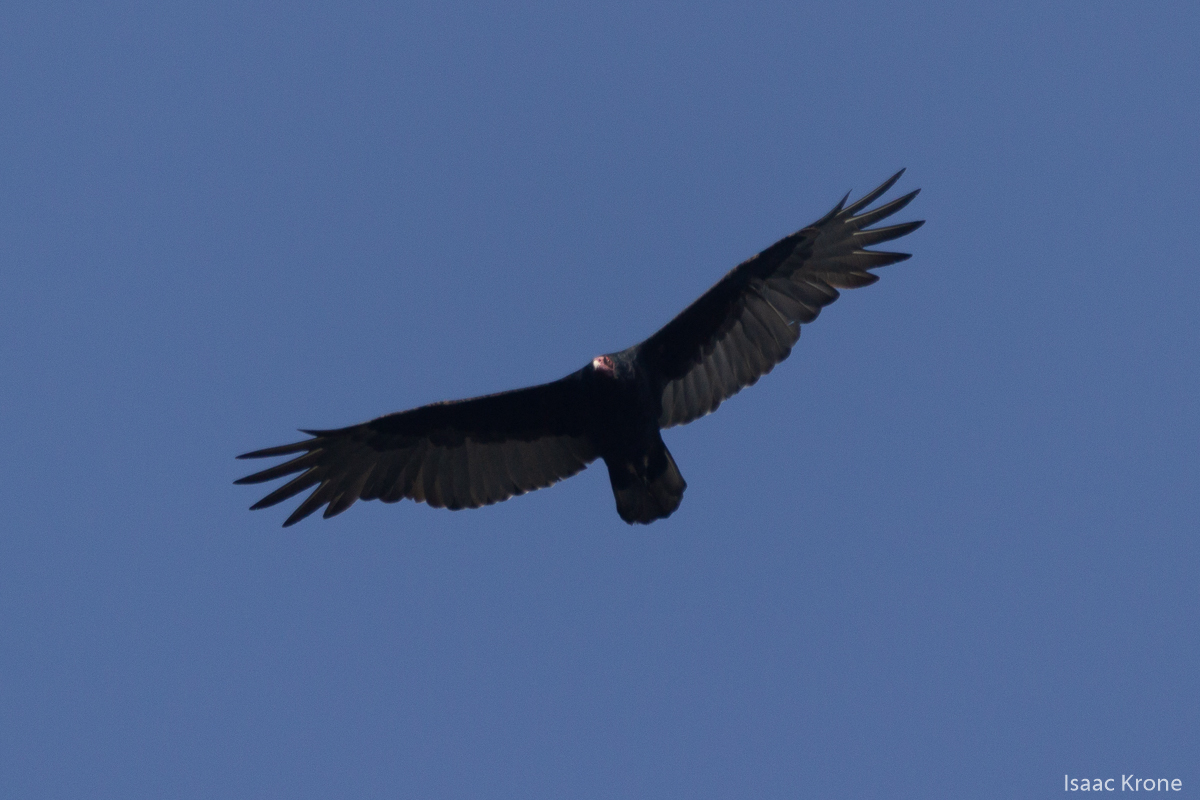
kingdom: Animalia
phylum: Chordata
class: Aves
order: Accipitriformes
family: Cathartidae
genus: Cathartes
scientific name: Cathartes aura
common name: Turkey vulture
